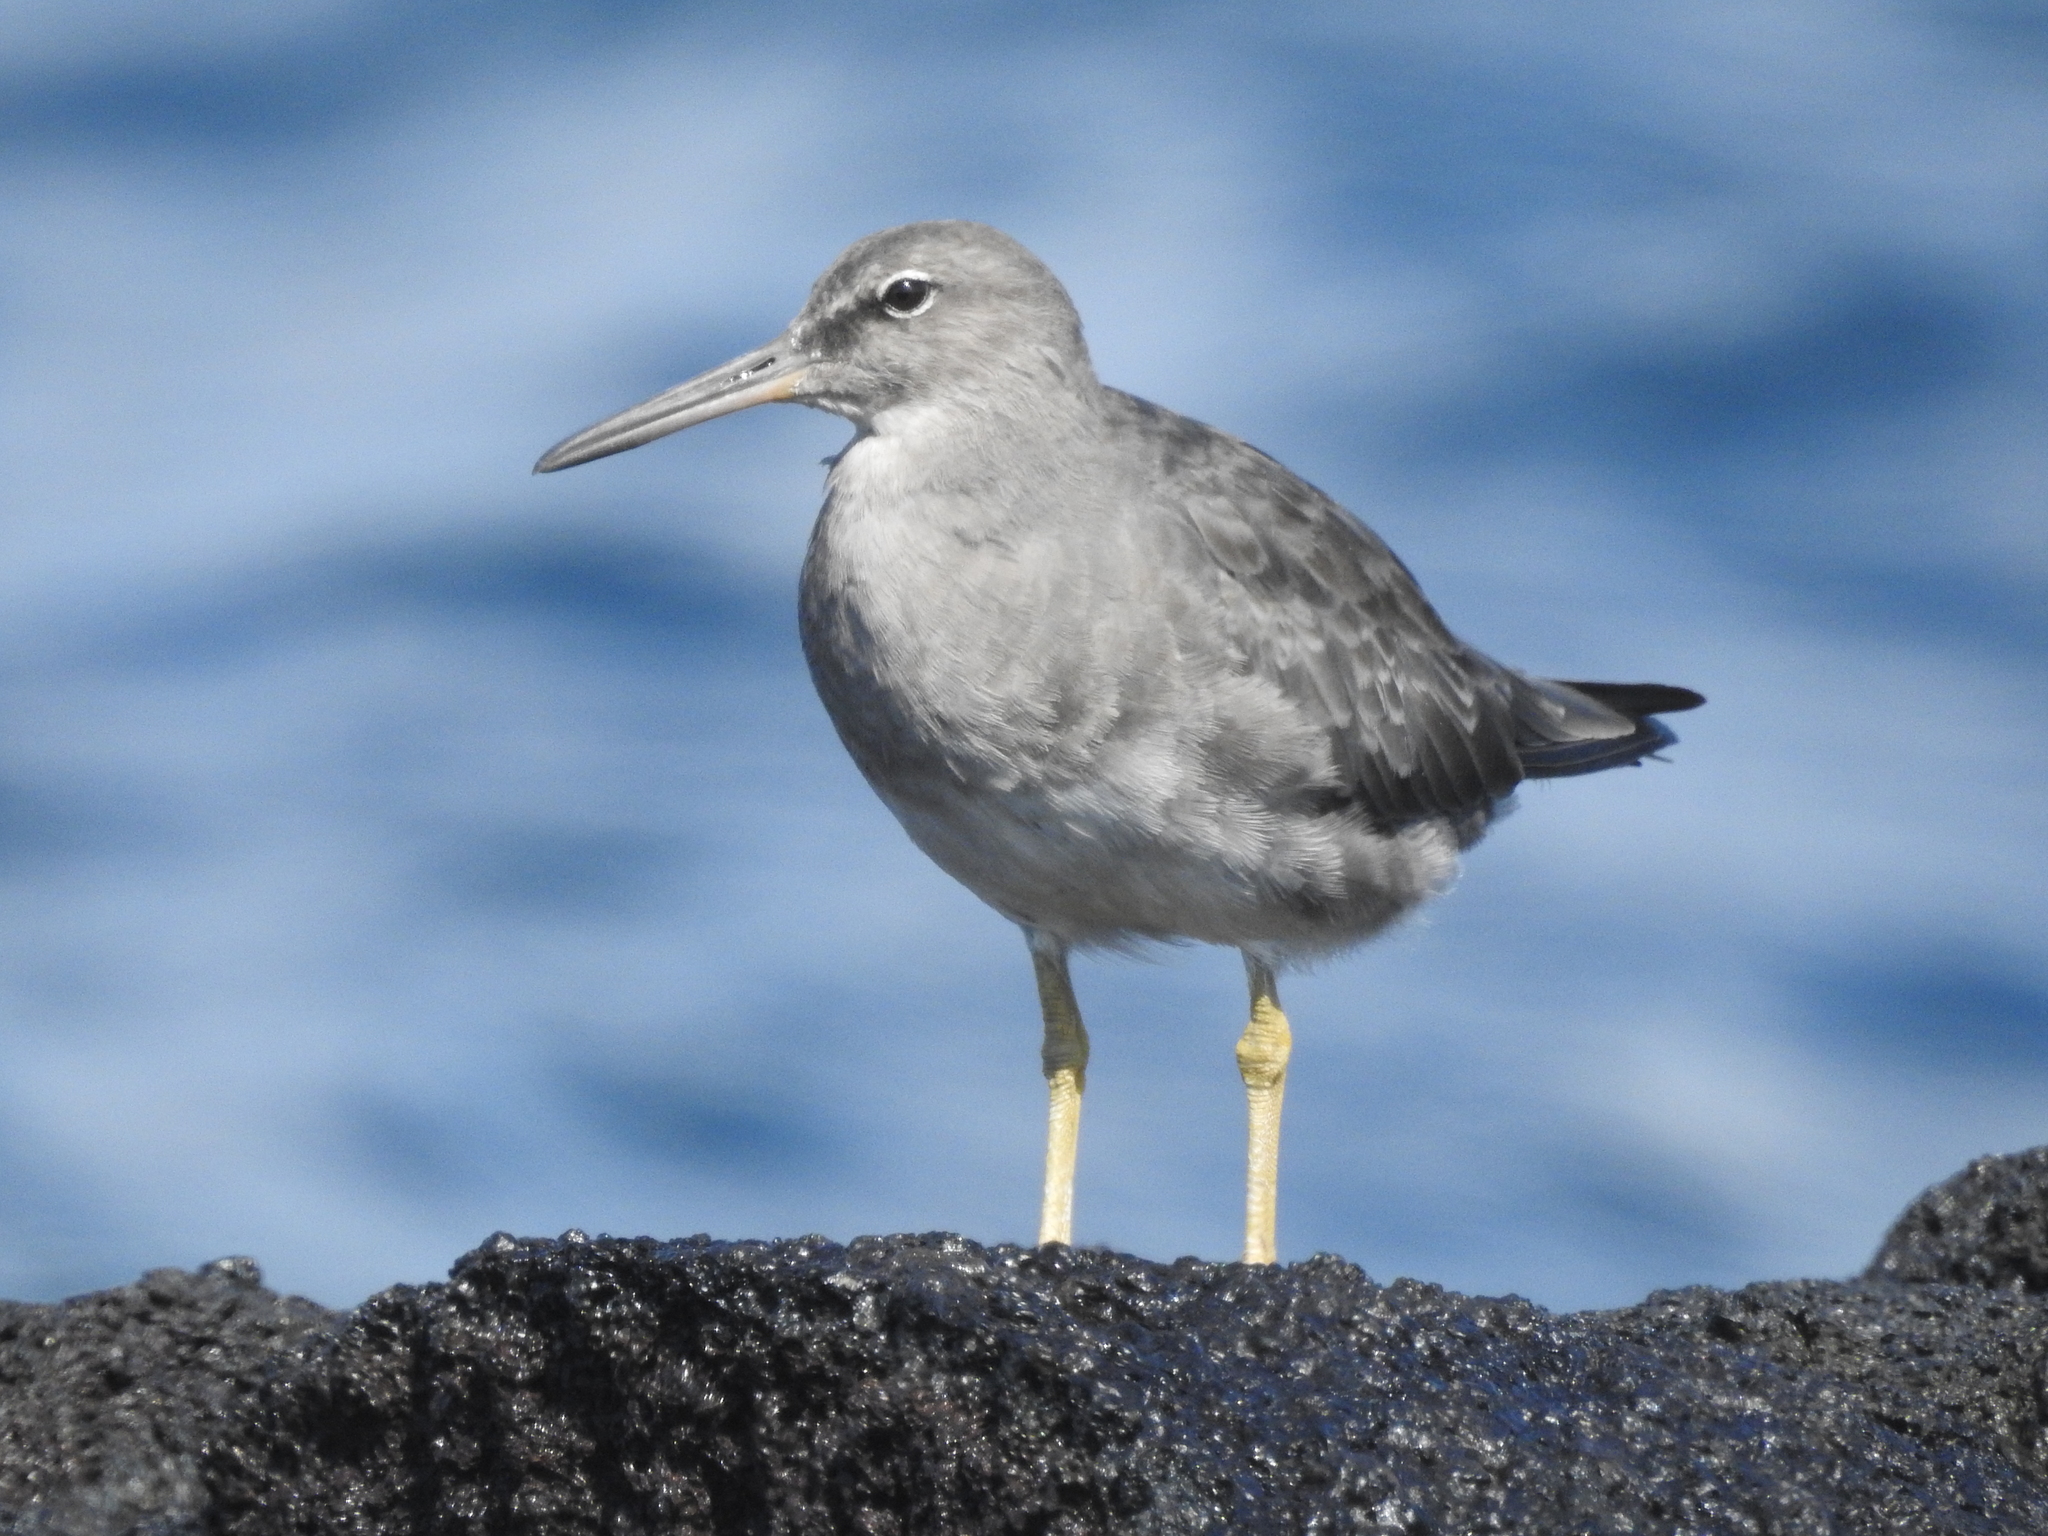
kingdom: Animalia
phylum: Chordata
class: Aves
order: Charadriiformes
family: Scolopacidae
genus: Tringa
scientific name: Tringa incana
